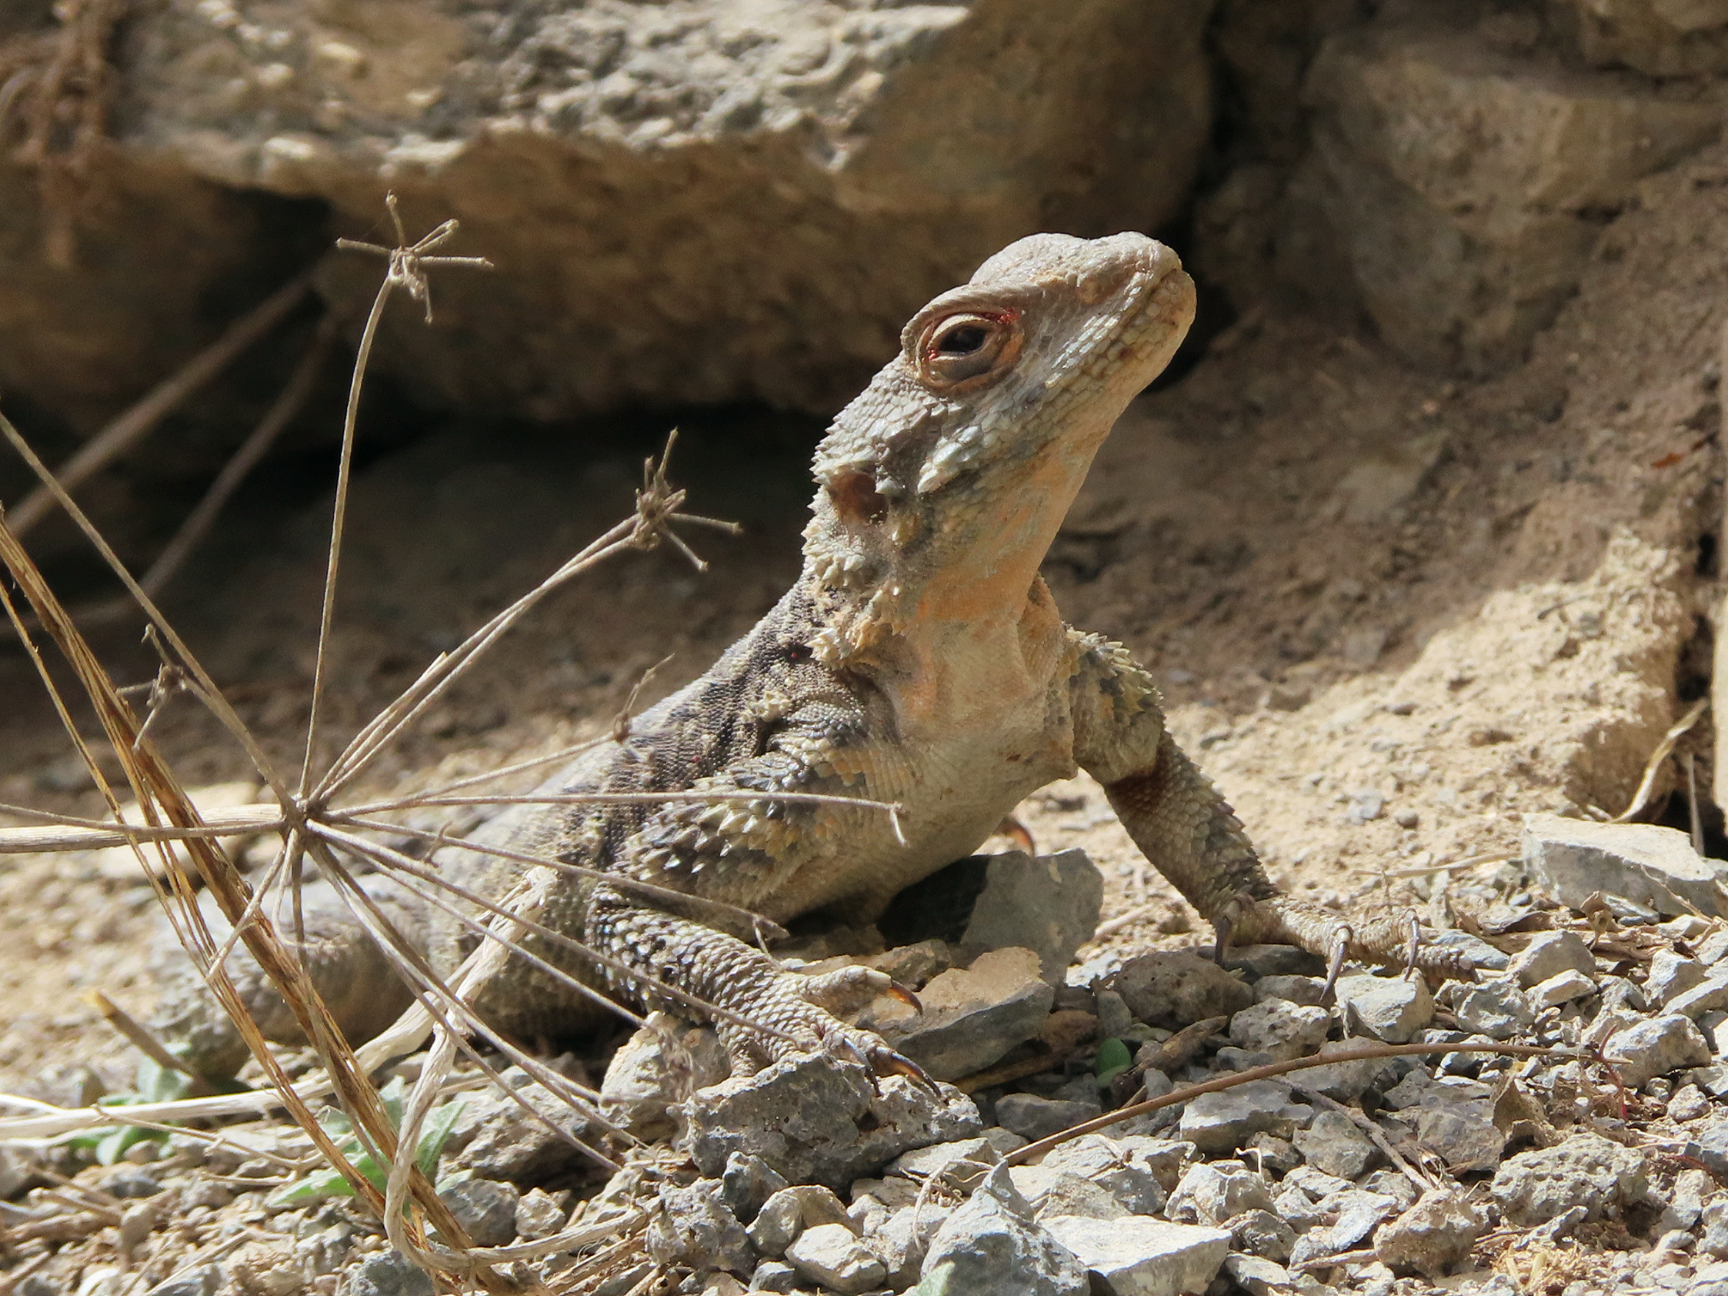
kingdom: Animalia
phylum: Chordata
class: Squamata
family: Agamidae
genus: Paralaudakia
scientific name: Paralaudakia caucasia
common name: Caucasian agama
